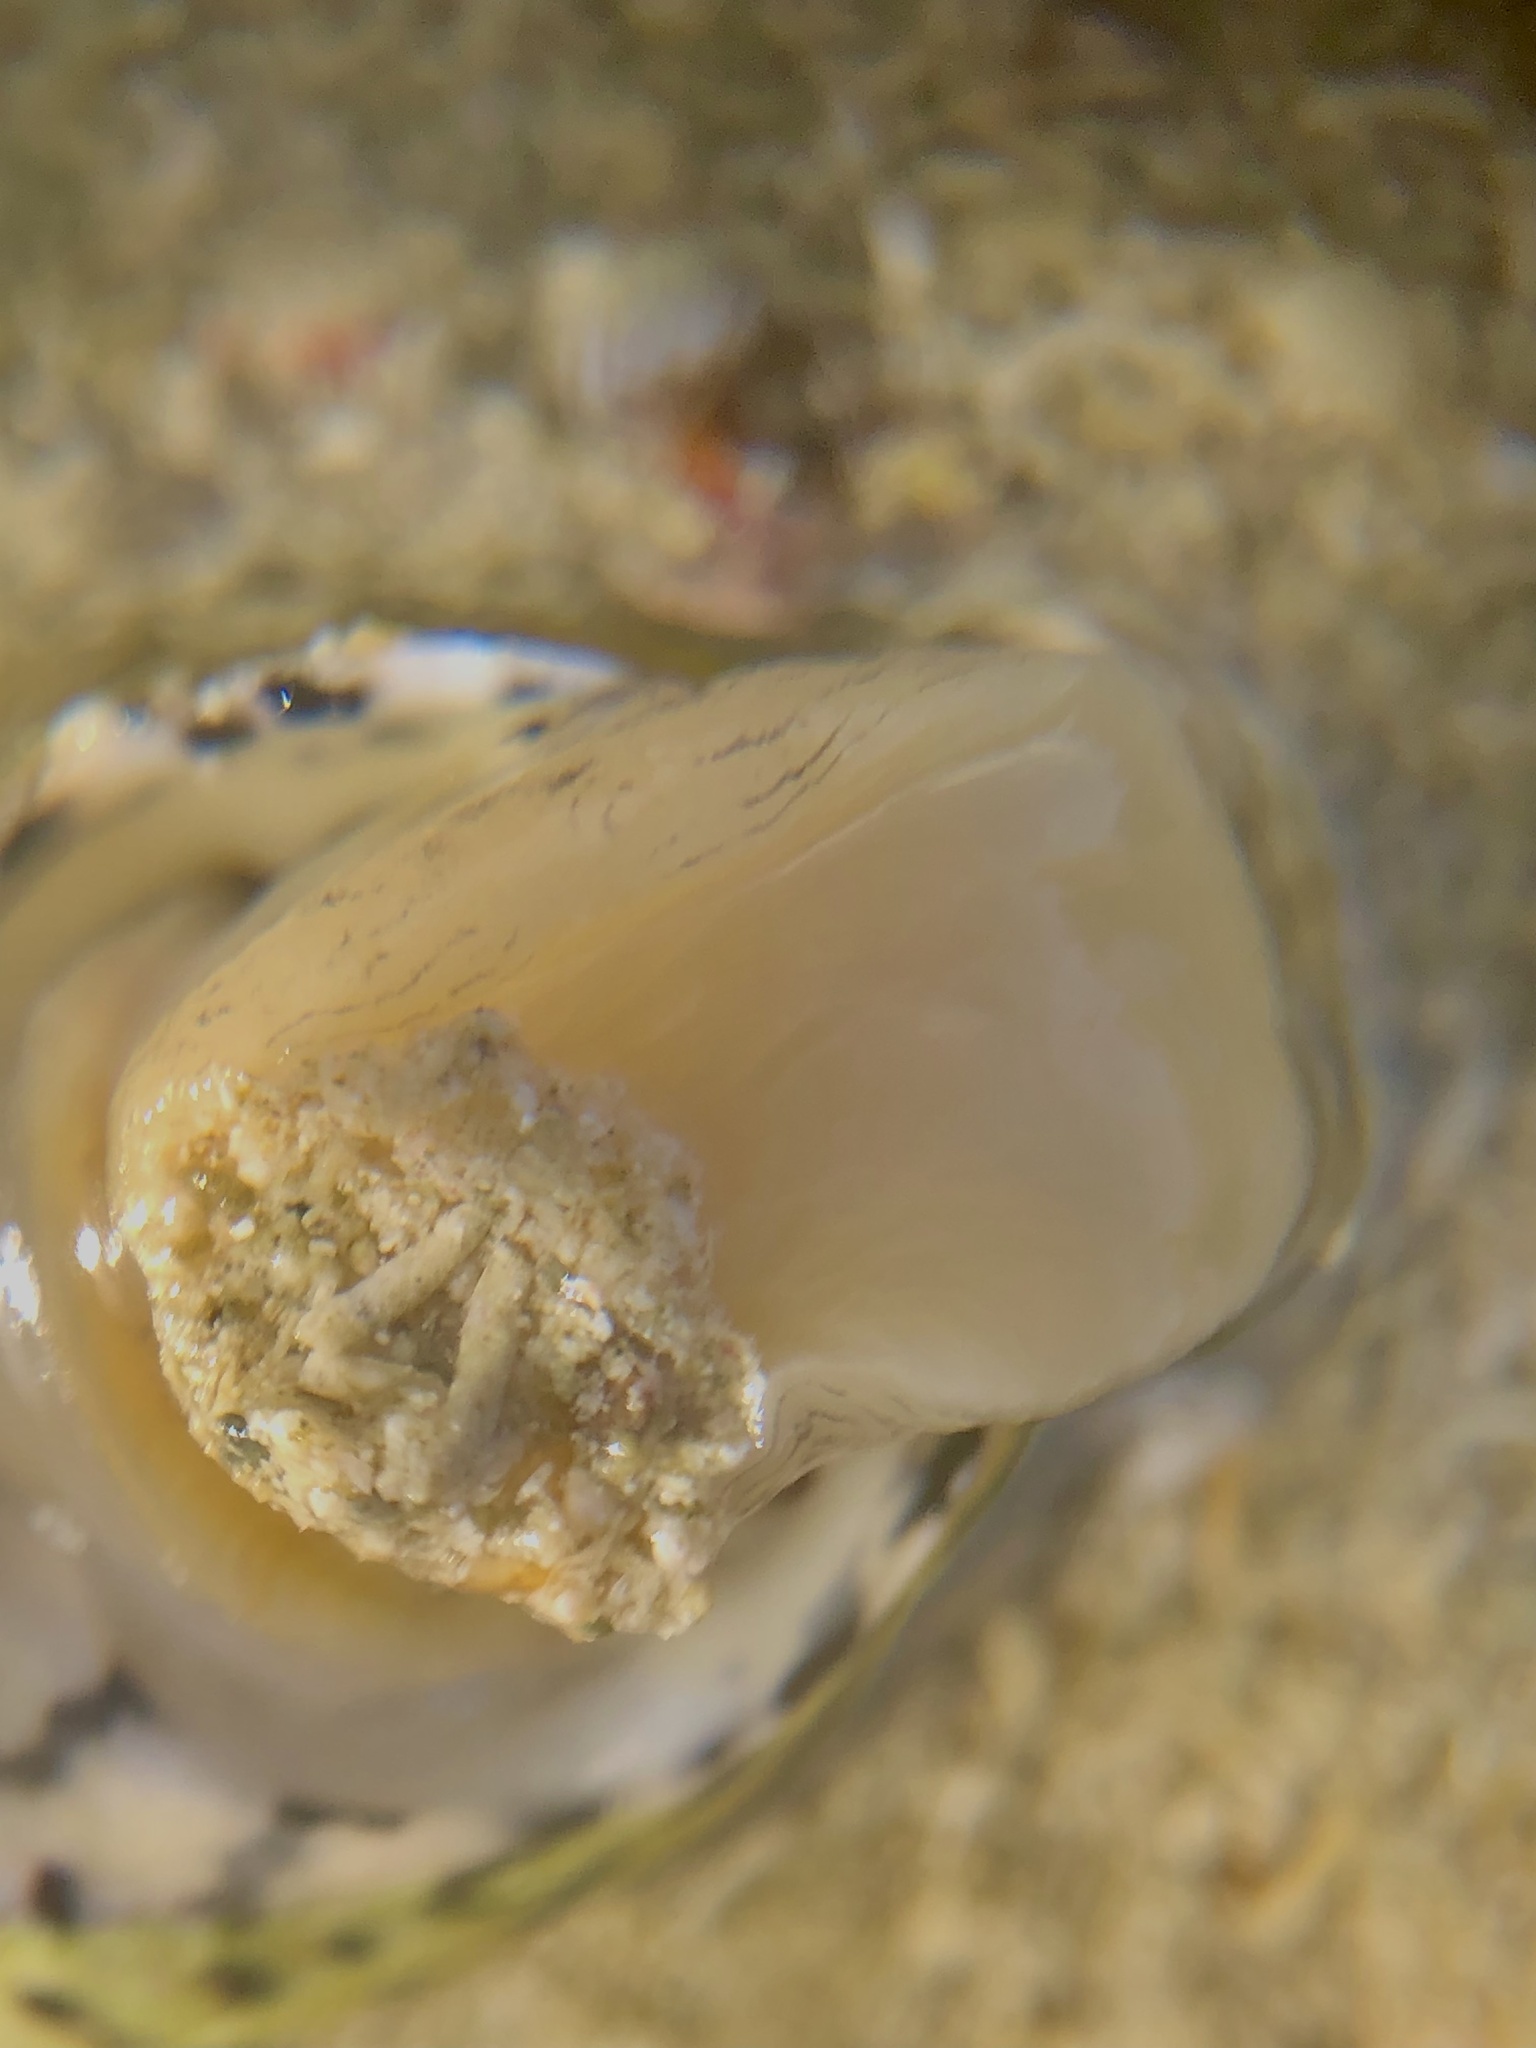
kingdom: Animalia
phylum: Mollusca
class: Gastropoda
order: Cycloneritida
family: Neritidae
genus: Nerita
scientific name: Nerita versicolor
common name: Four-tooth nerite
